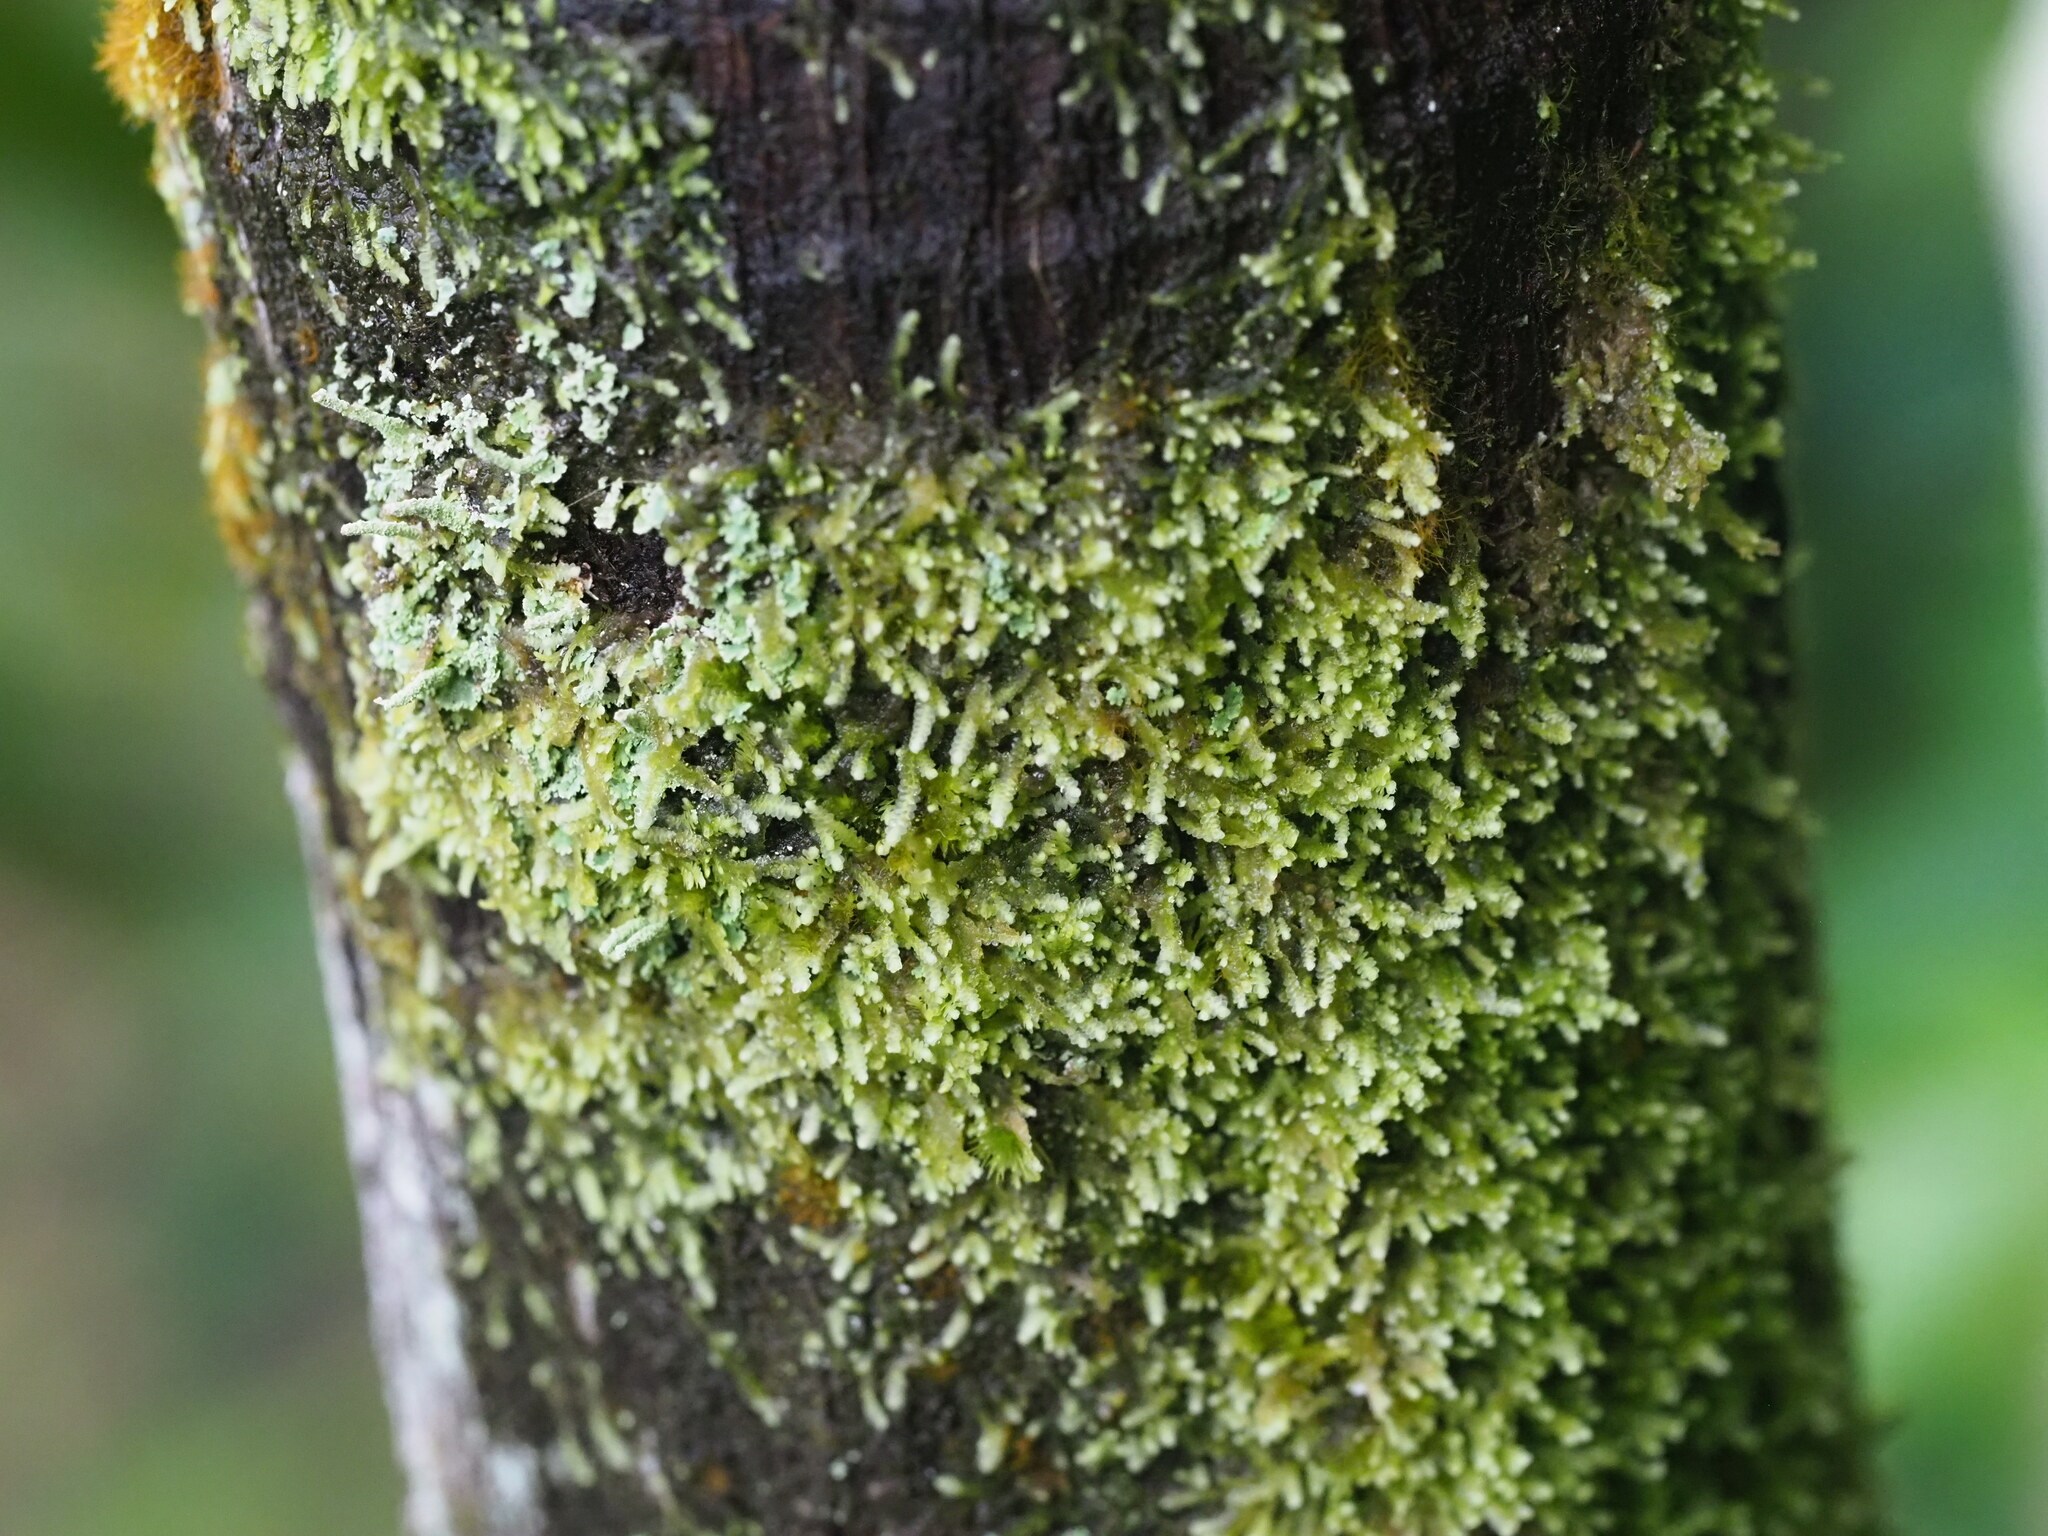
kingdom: Plantae
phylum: Marchantiophyta
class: Jungermanniopsida
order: Porellales
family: Lejeuneaceae
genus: Lejeunea
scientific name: Lejeunea flava
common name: Yellow pouncewort
